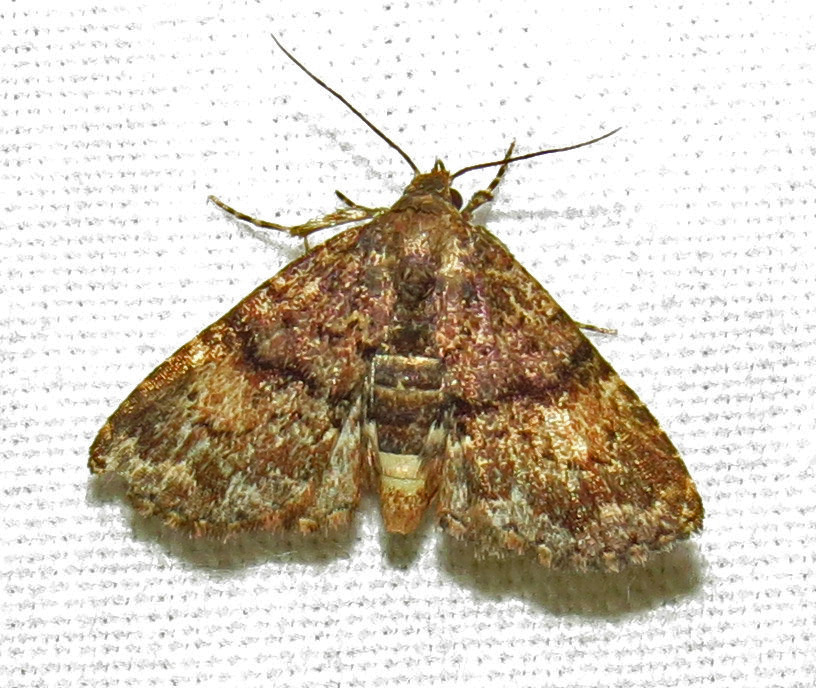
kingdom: Animalia
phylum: Arthropoda
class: Insecta
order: Lepidoptera
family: Erebidae
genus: Metalectra
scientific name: Metalectra richardsi
